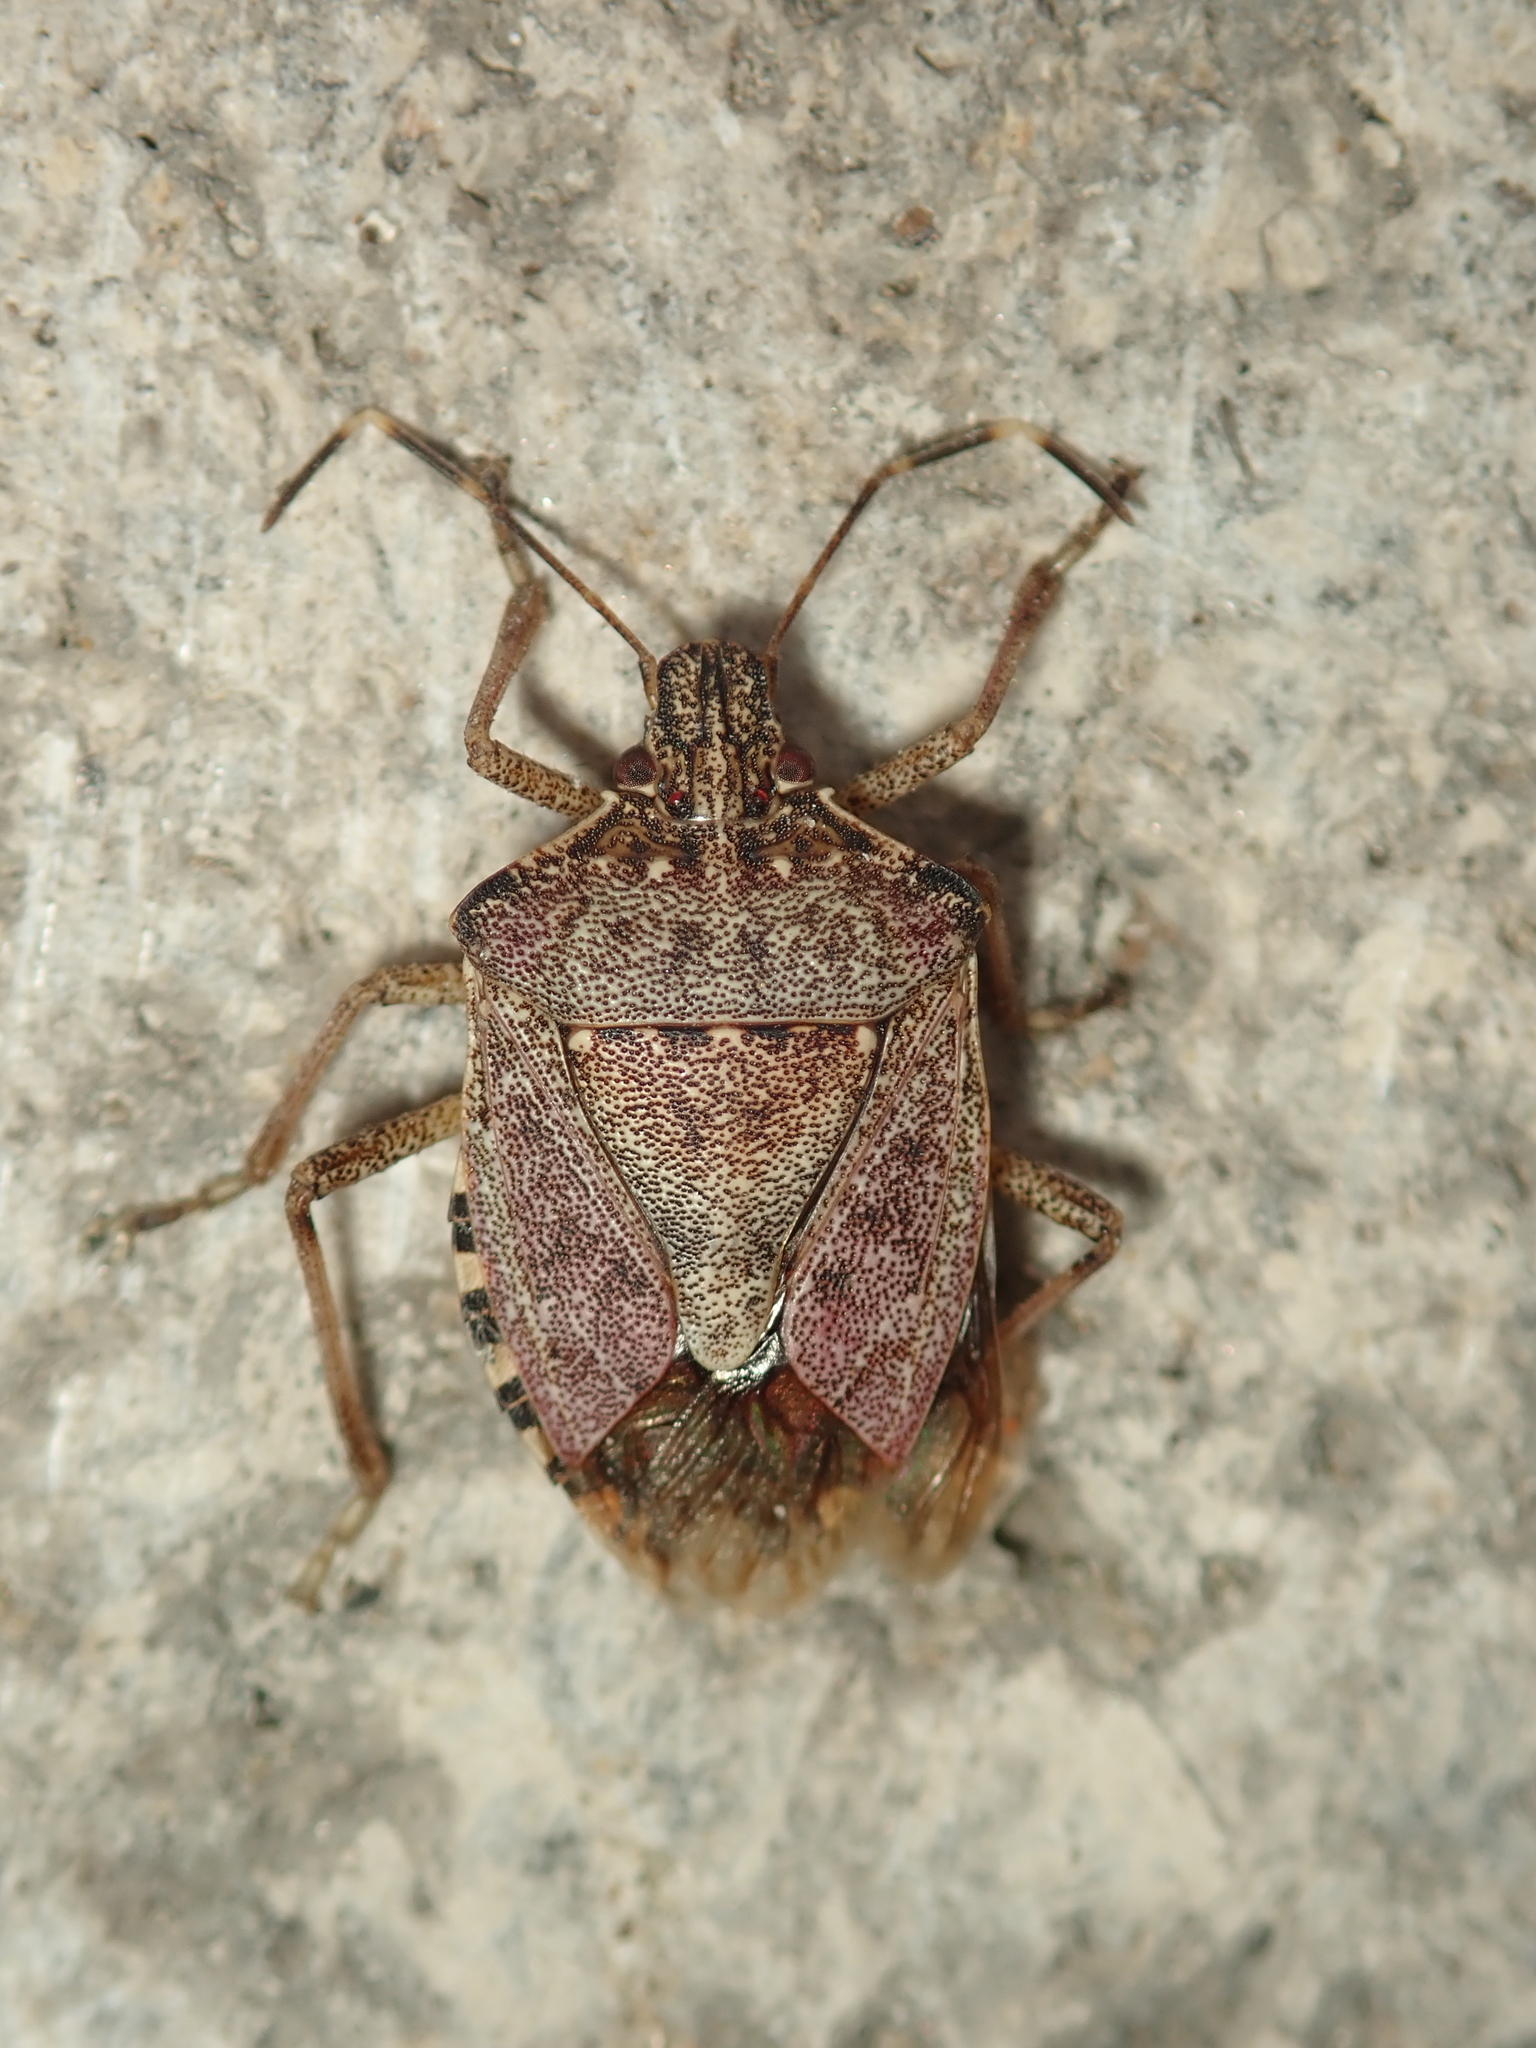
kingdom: Animalia
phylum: Arthropoda
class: Insecta
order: Hemiptera
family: Pentatomidae
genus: Halyomorpha
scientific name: Halyomorpha halys
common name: Brown marmorated stink bug
